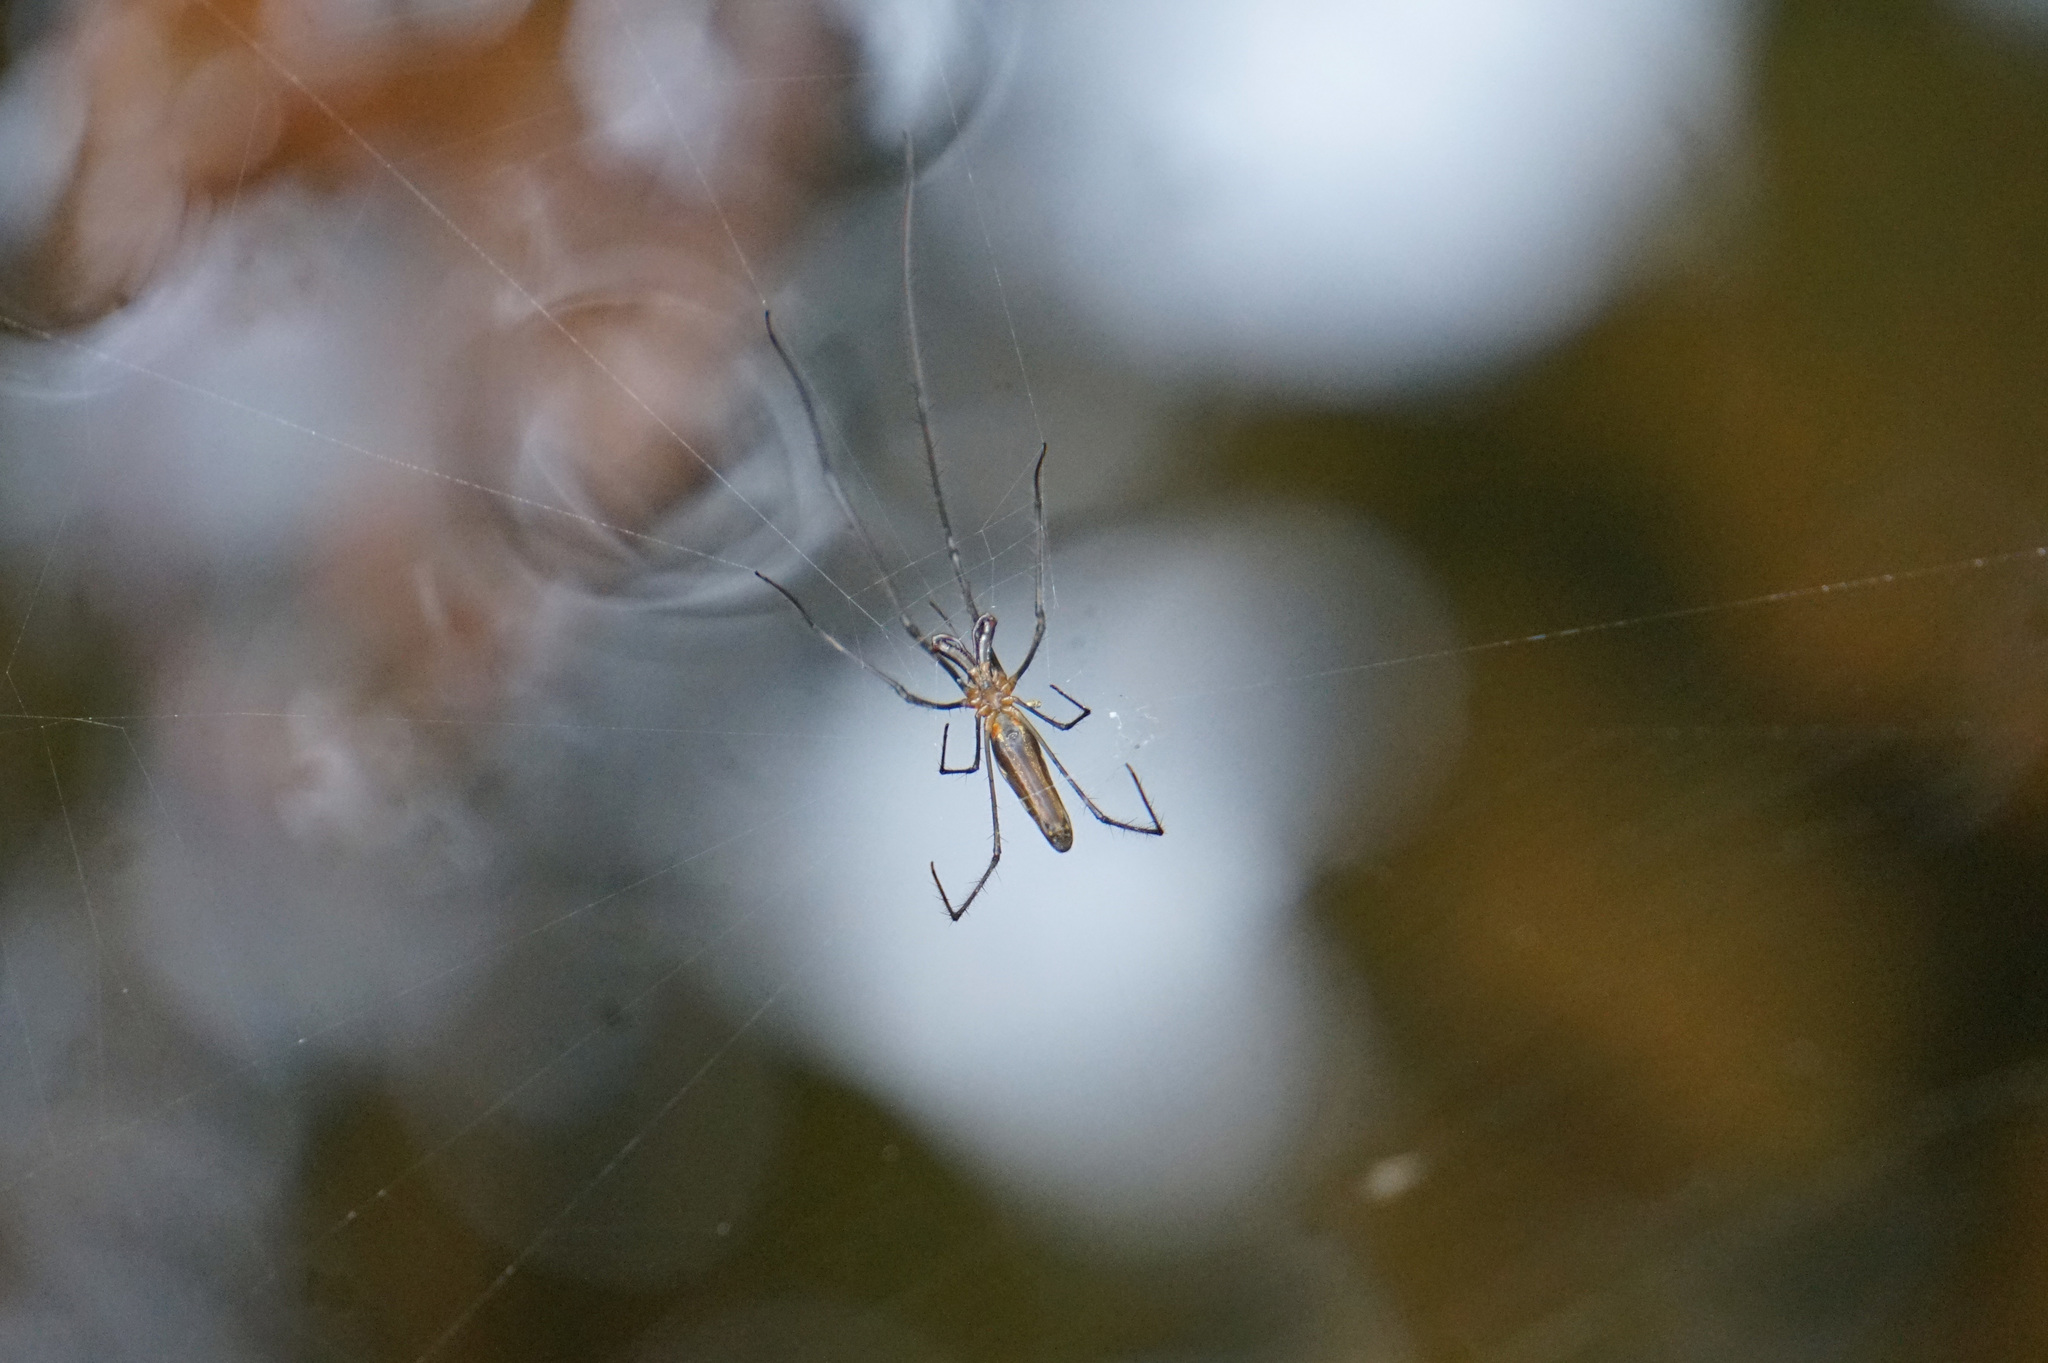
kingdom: Animalia
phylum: Arthropoda
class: Arachnida
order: Araneae
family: Tetragnathidae
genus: Tetragnatha
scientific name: Tetragnatha
